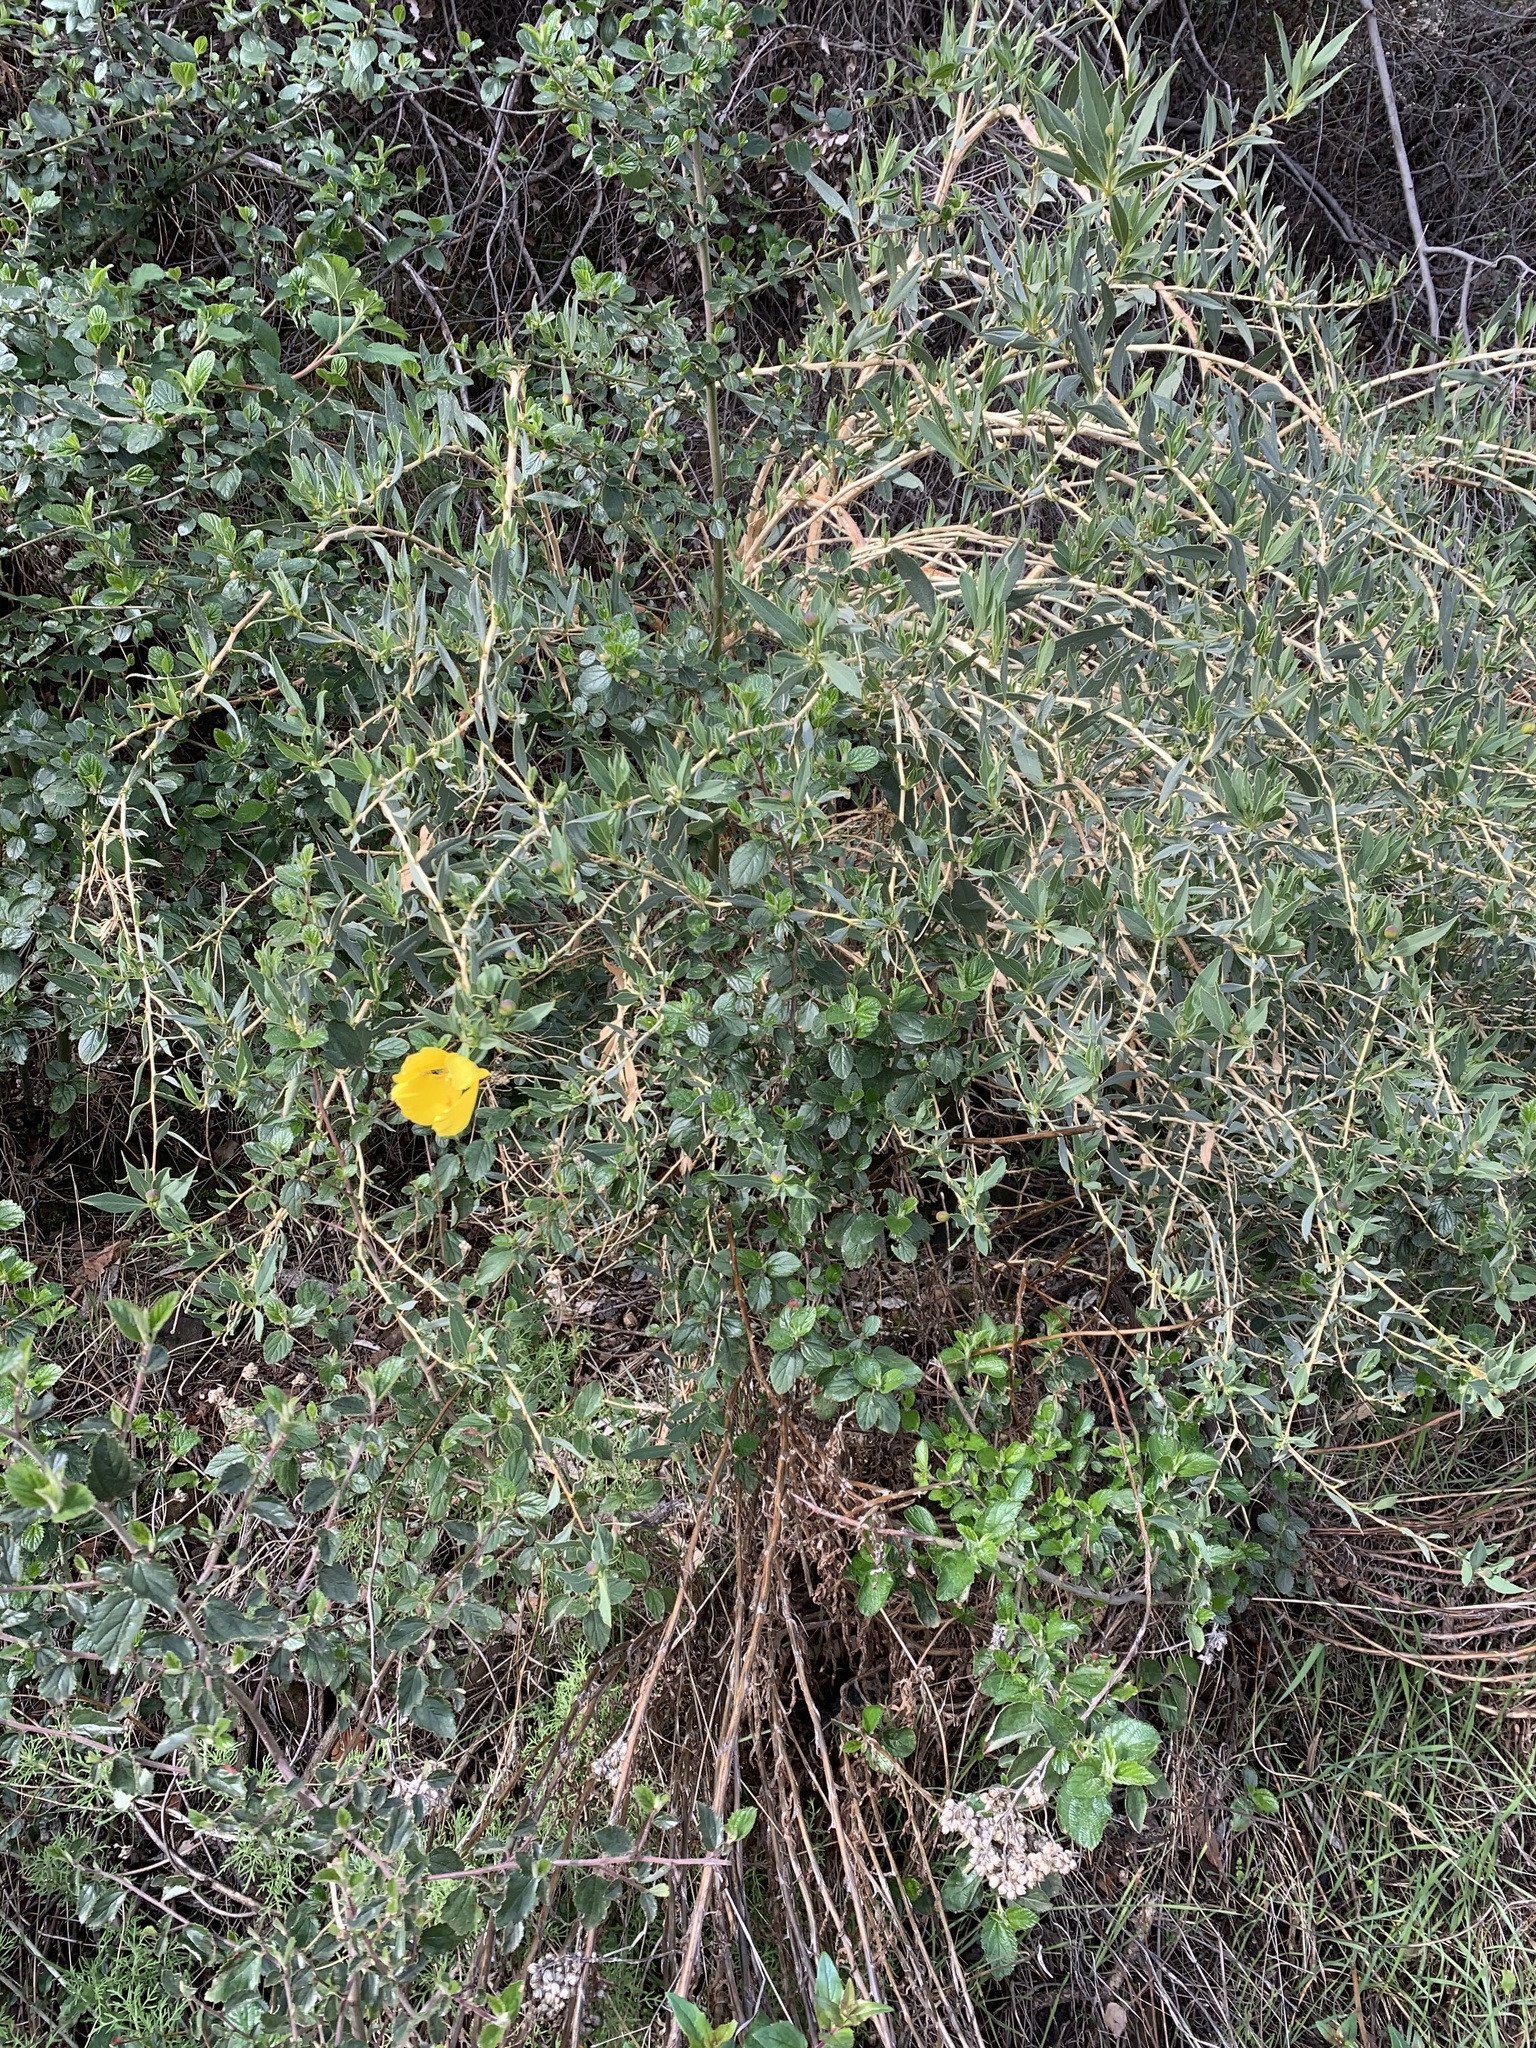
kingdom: Plantae
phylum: Tracheophyta
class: Magnoliopsida
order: Ranunculales
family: Papaveraceae
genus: Dendromecon
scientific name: Dendromecon rigida
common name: Tree poppy
